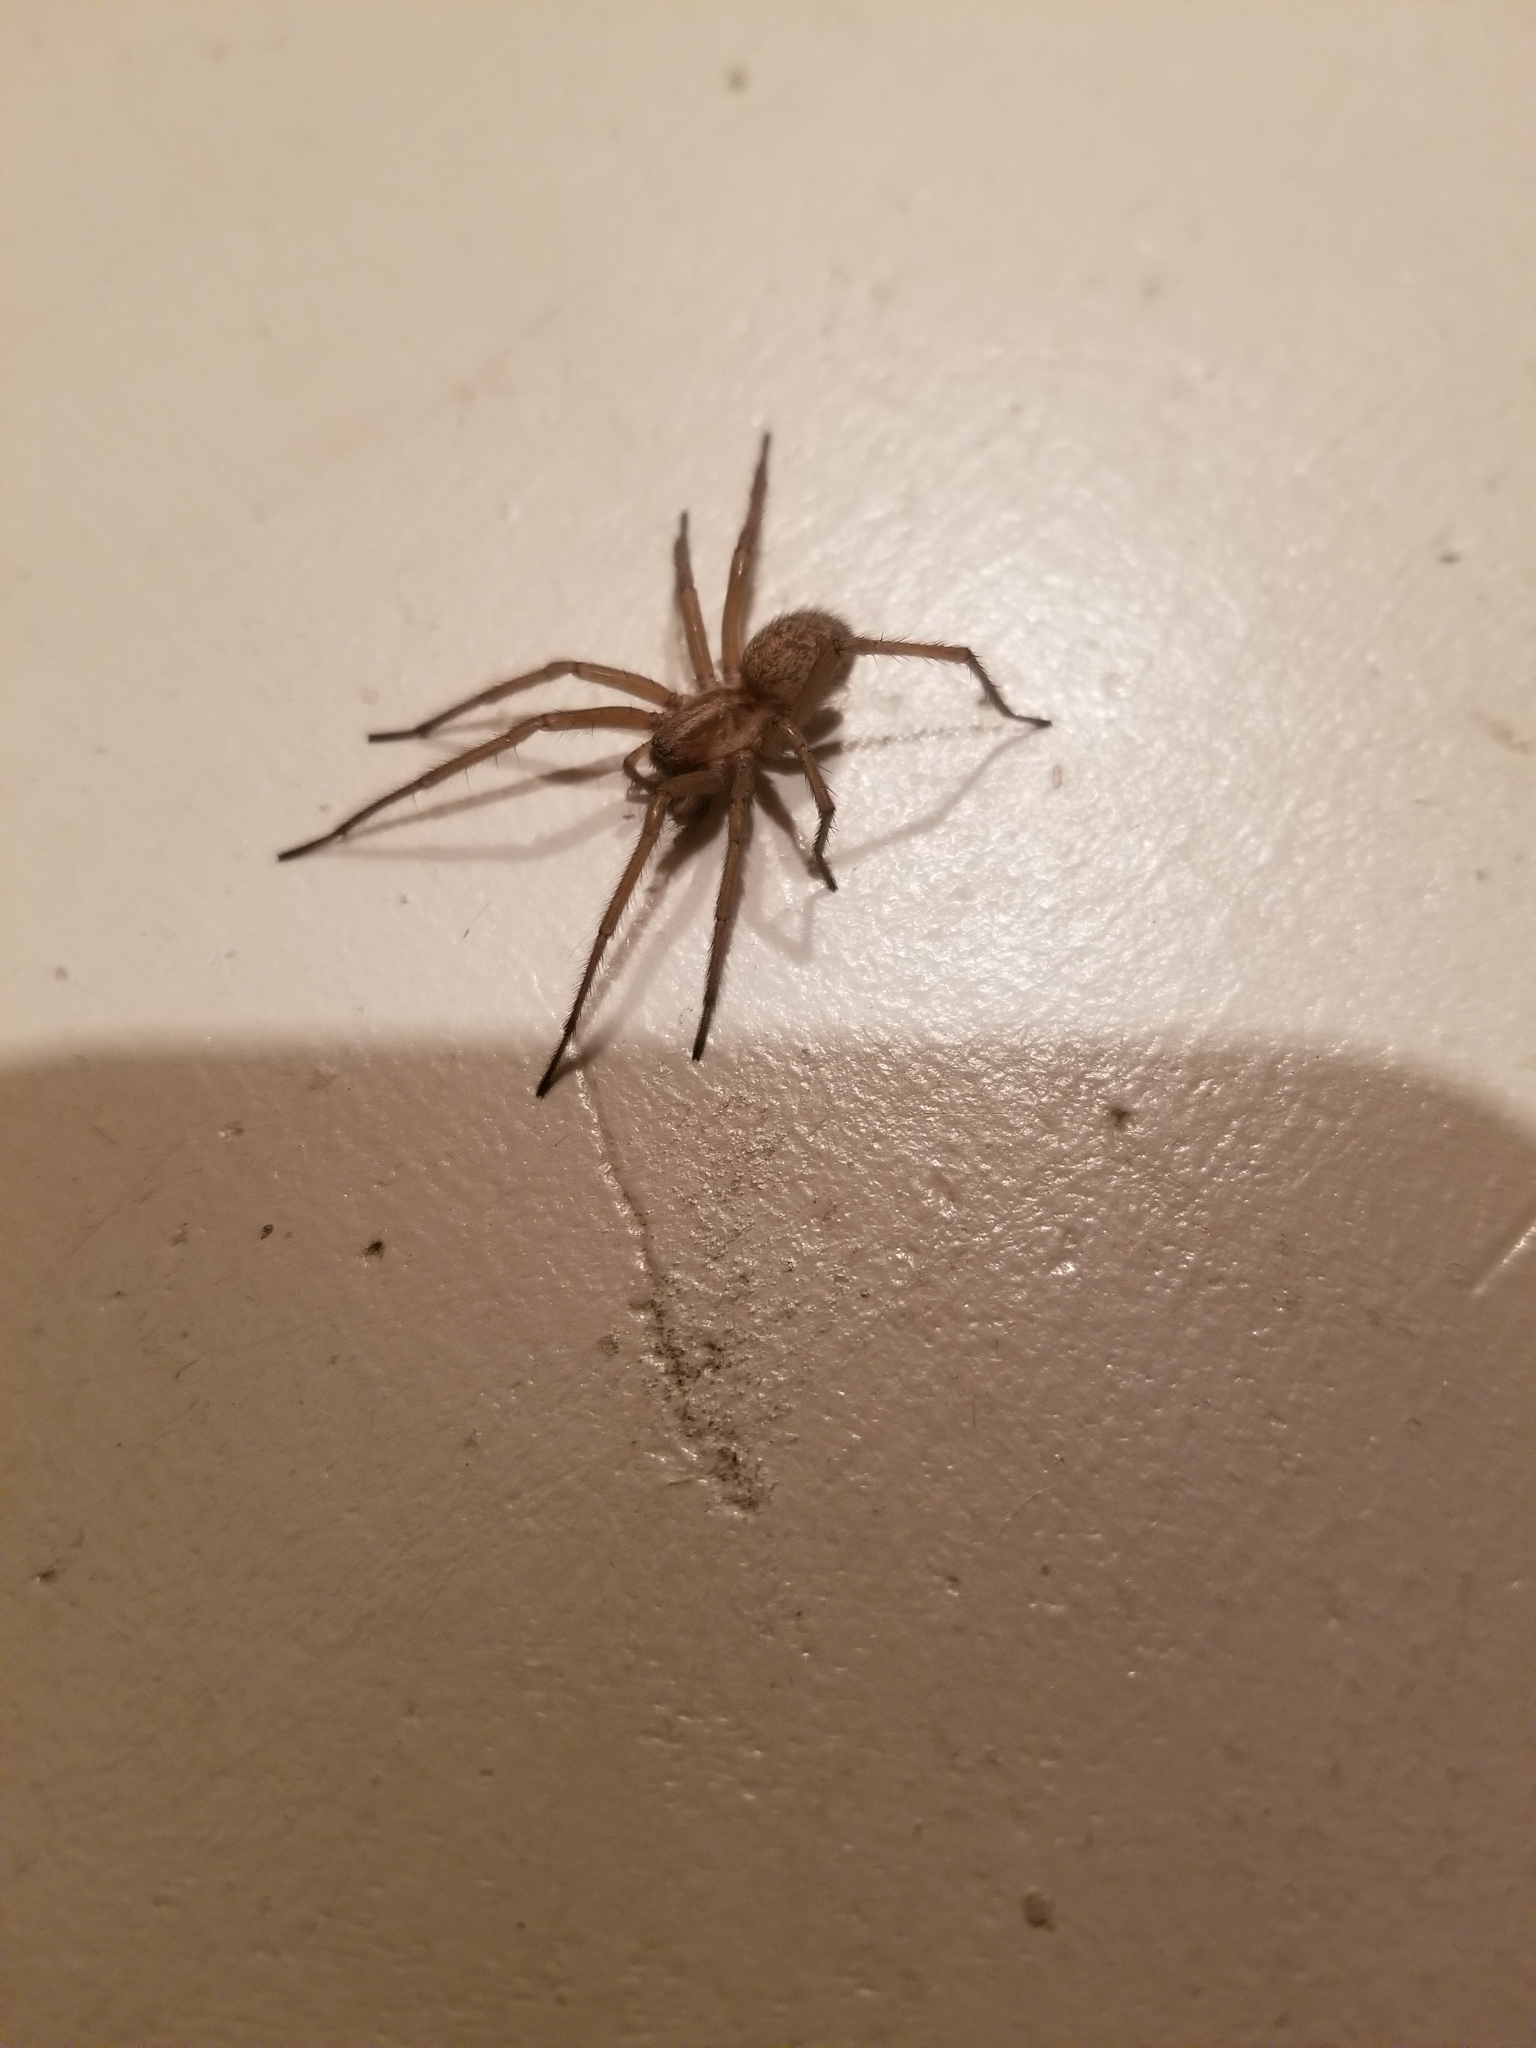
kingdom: Animalia
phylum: Arthropoda
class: Arachnida
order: Araneae
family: Agelenidae
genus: Eratigena
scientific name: Eratigena agrestis
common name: Hobo spider
